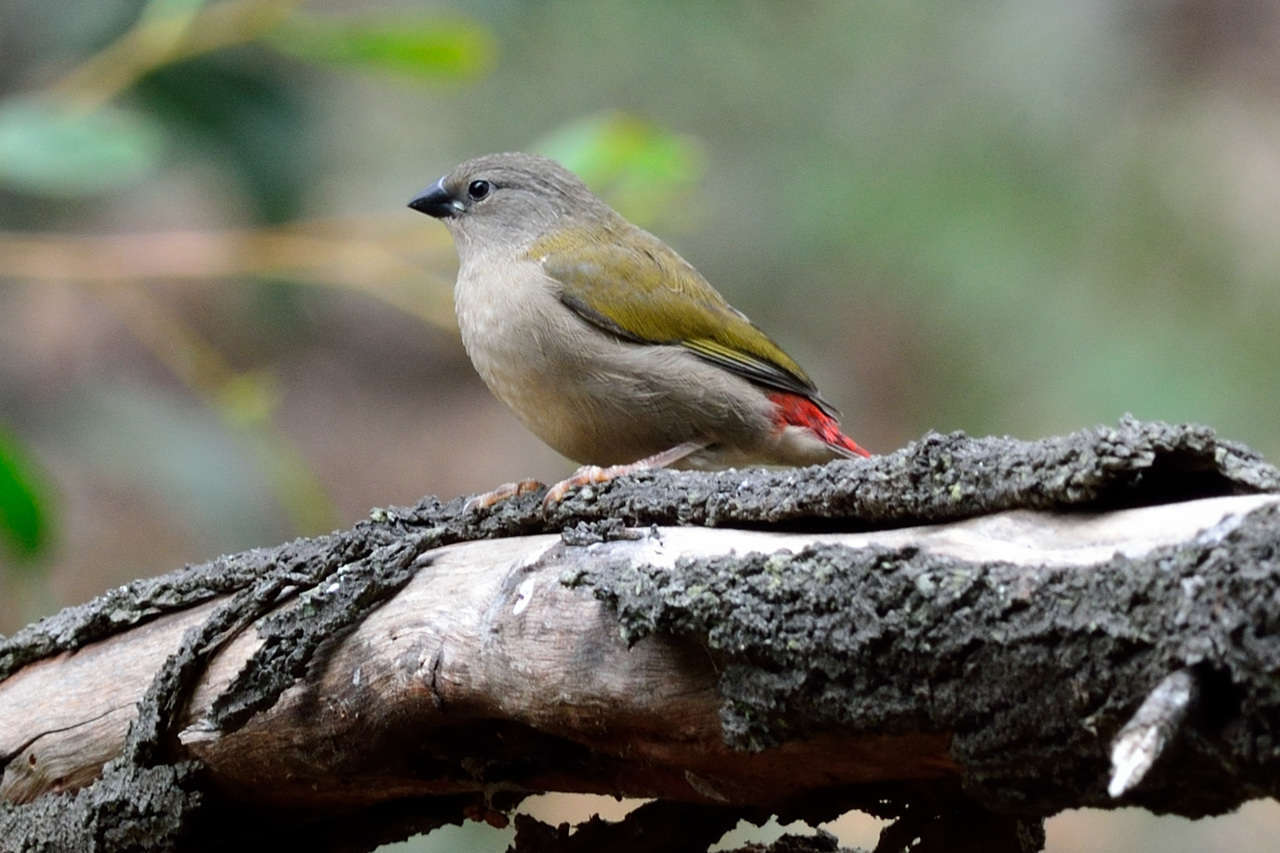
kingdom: Animalia
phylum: Chordata
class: Aves
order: Passeriformes
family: Estrildidae
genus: Neochmia
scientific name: Neochmia temporalis
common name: Red-browed finch
